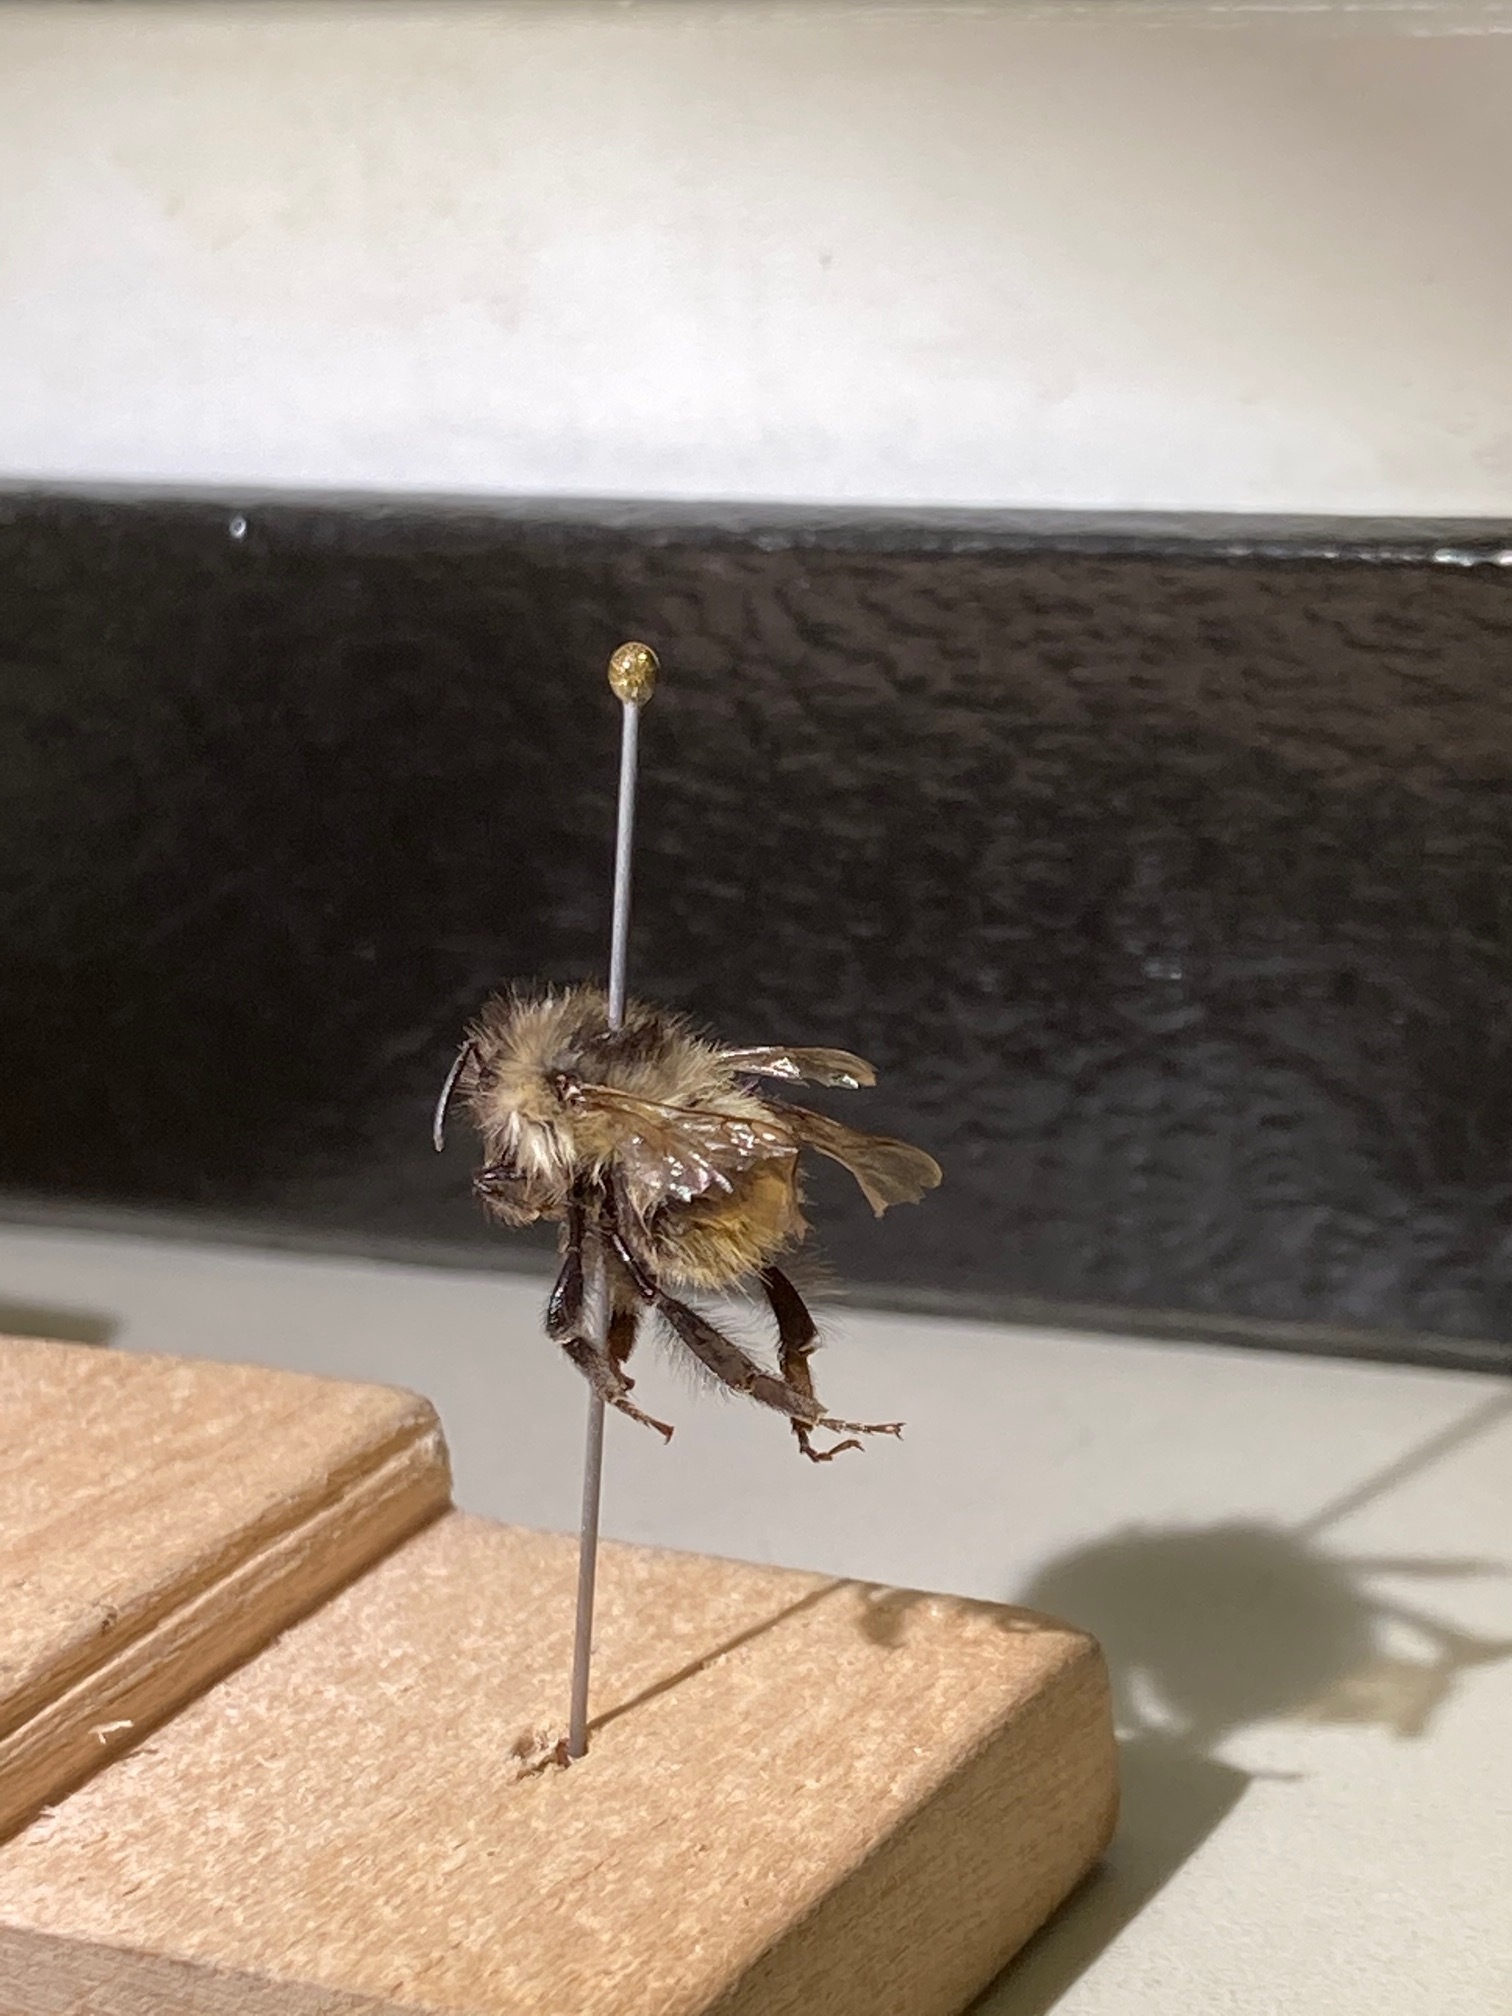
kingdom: Animalia
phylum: Arthropoda
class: Insecta
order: Hymenoptera
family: Apidae
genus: Bombus
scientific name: Bombus mixtus
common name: Fuzzy-horned bumble bee
